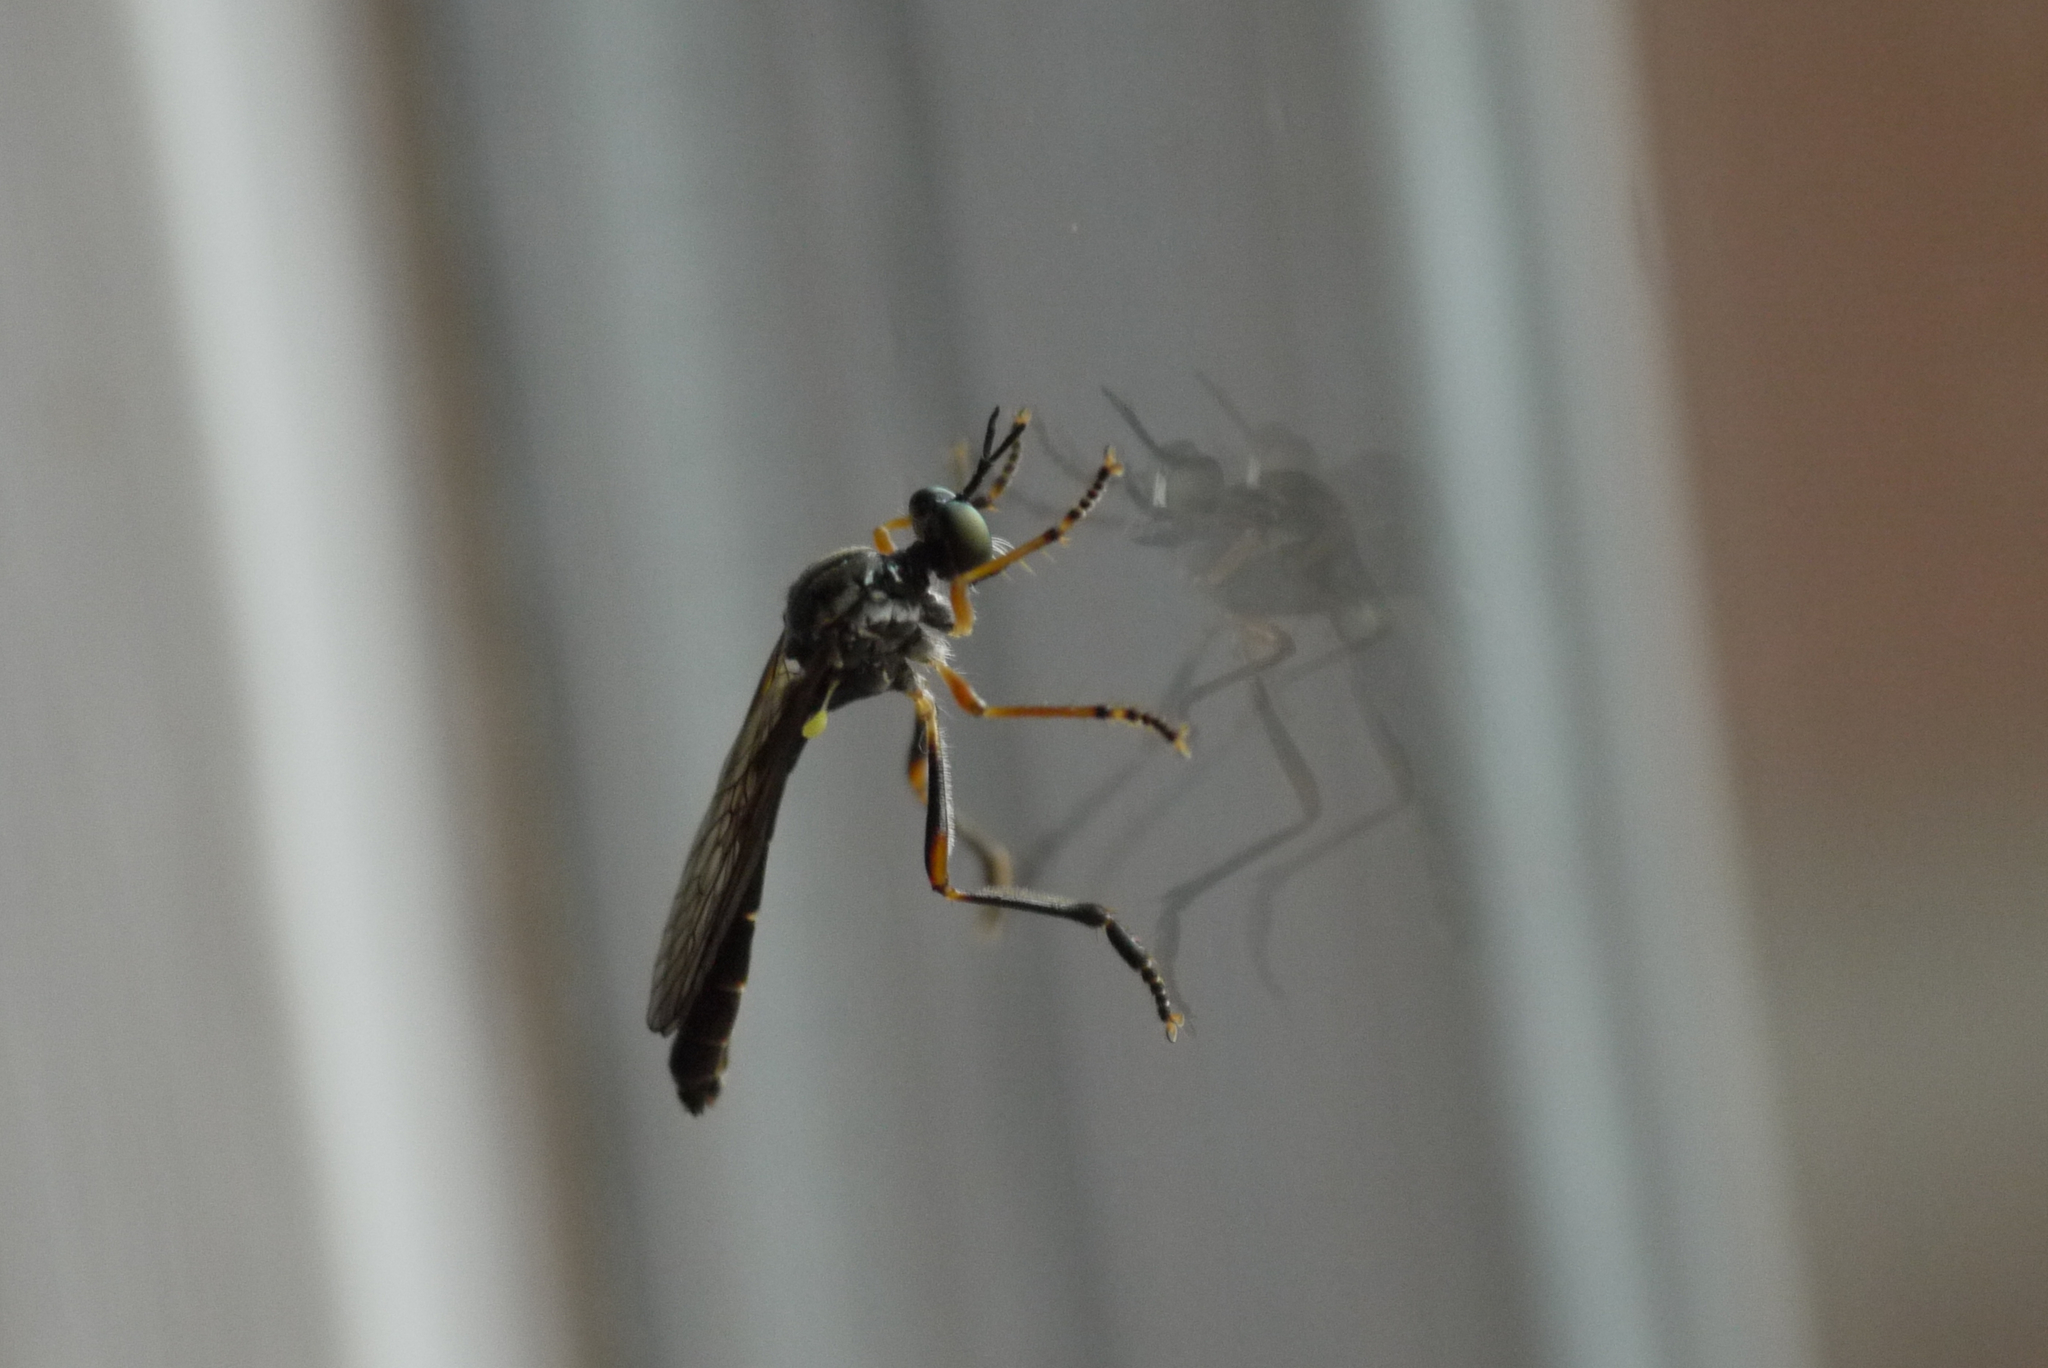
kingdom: Animalia
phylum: Arthropoda
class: Insecta
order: Diptera
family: Asilidae
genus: Dioctria
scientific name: Dioctria hyalipennis
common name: Stripe-legged robberfly
